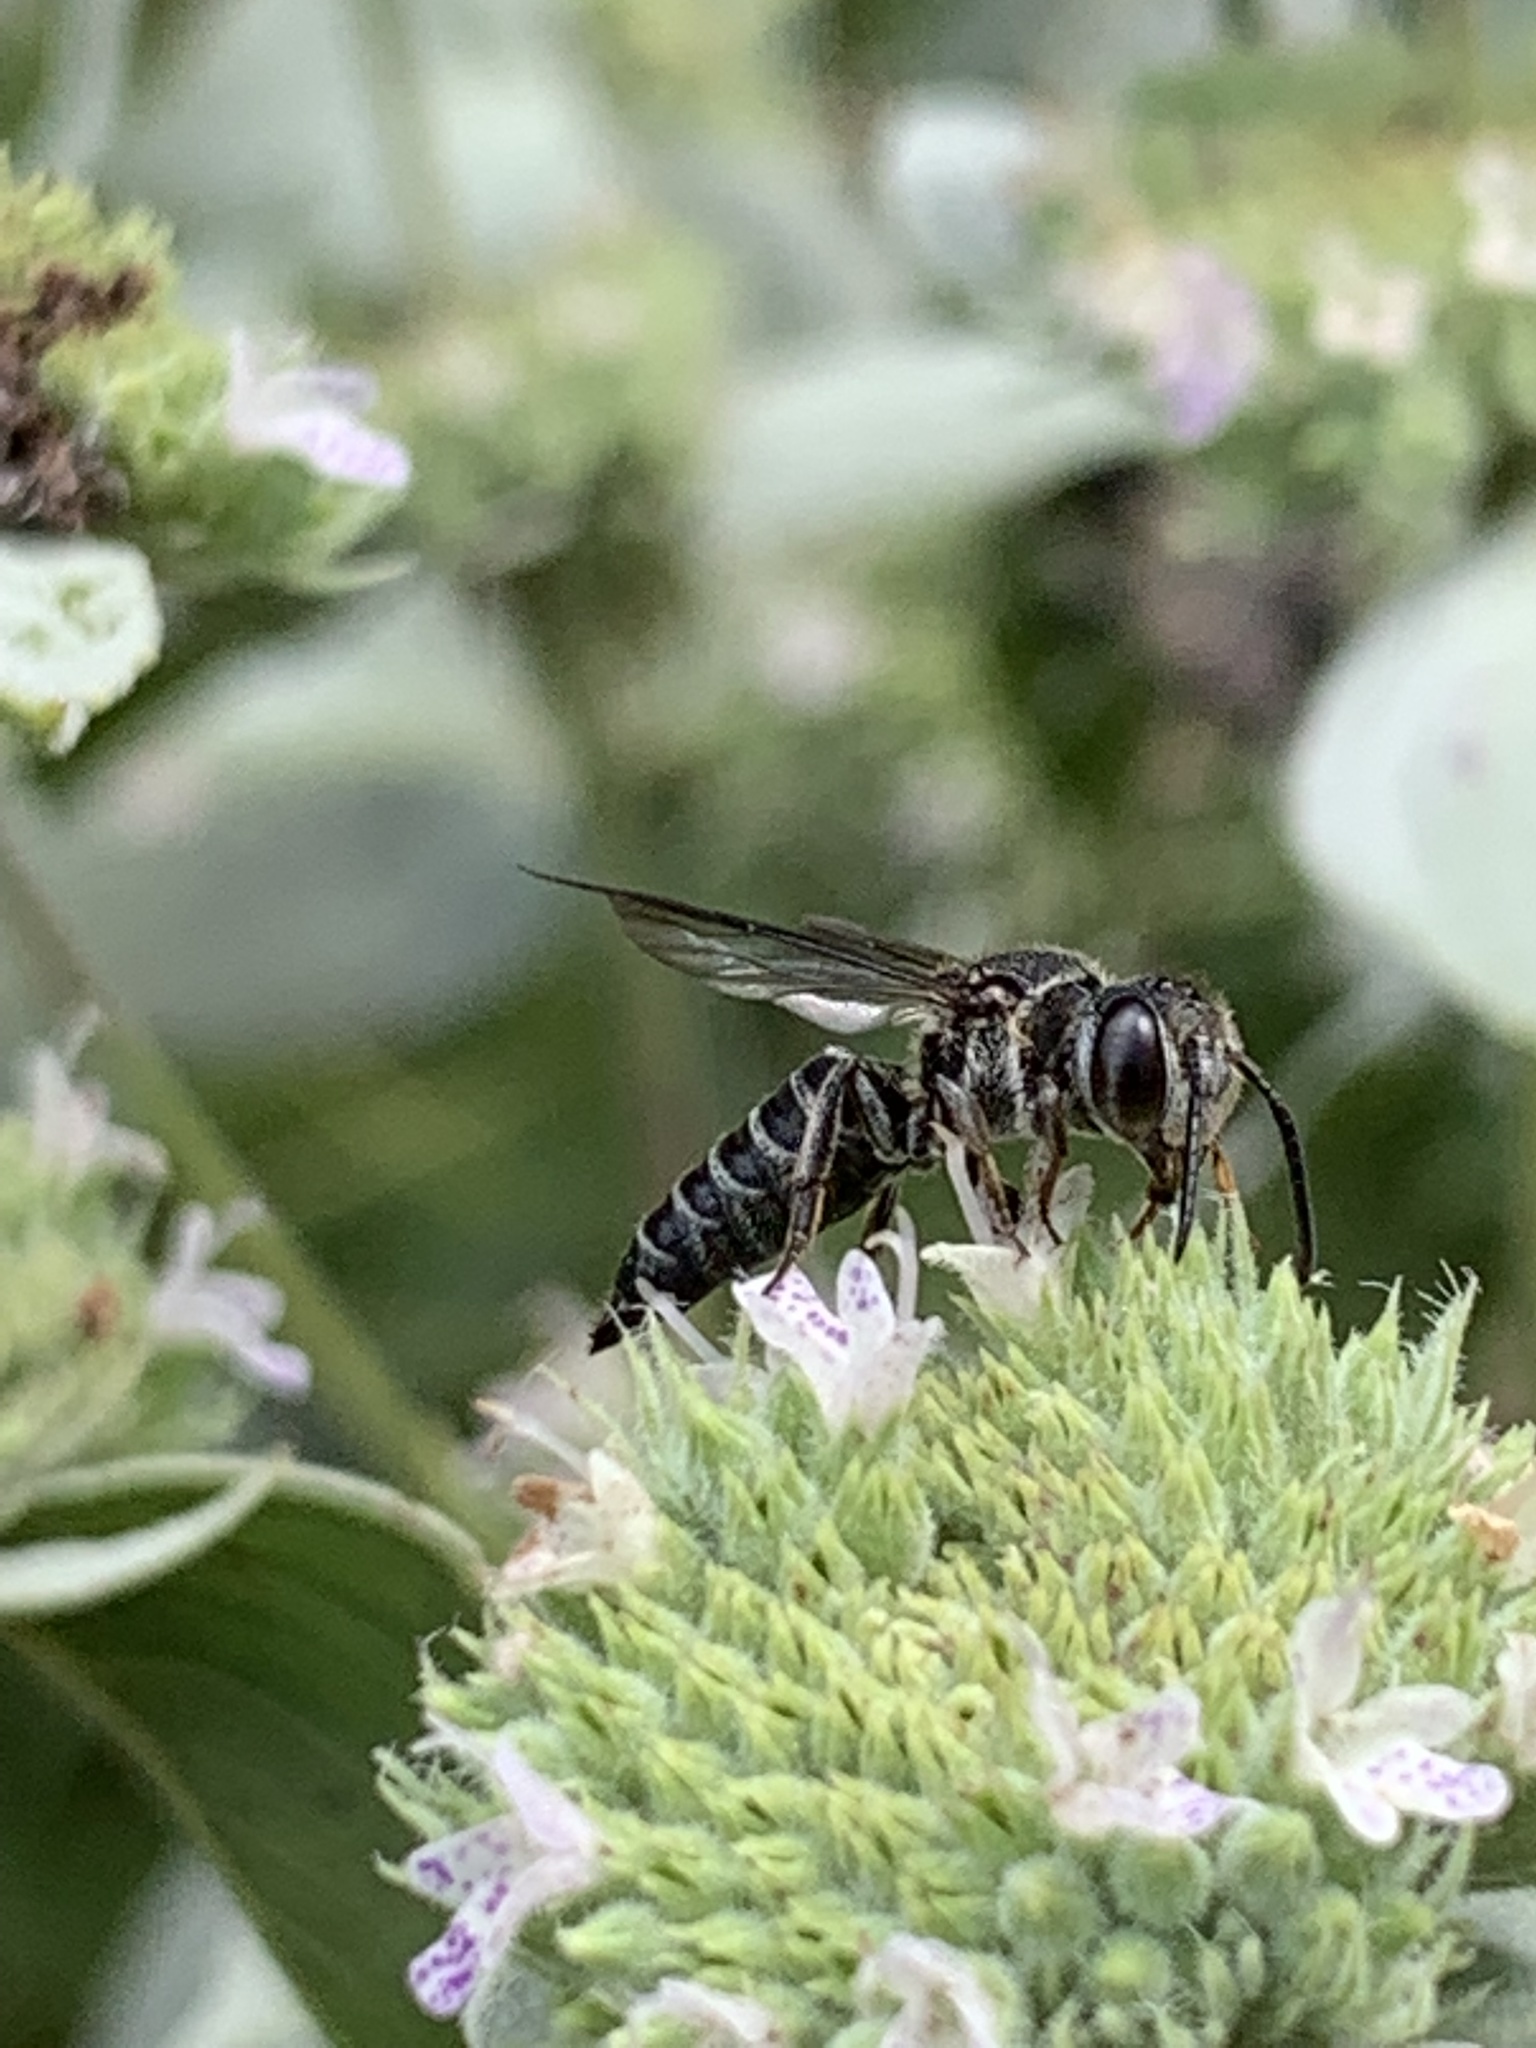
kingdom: Animalia
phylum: Arthropoda
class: Insecta
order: Hymenoptera
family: Megachilidae
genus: Coelioxys
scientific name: Coelioxys modestus
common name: Modest sharptail
